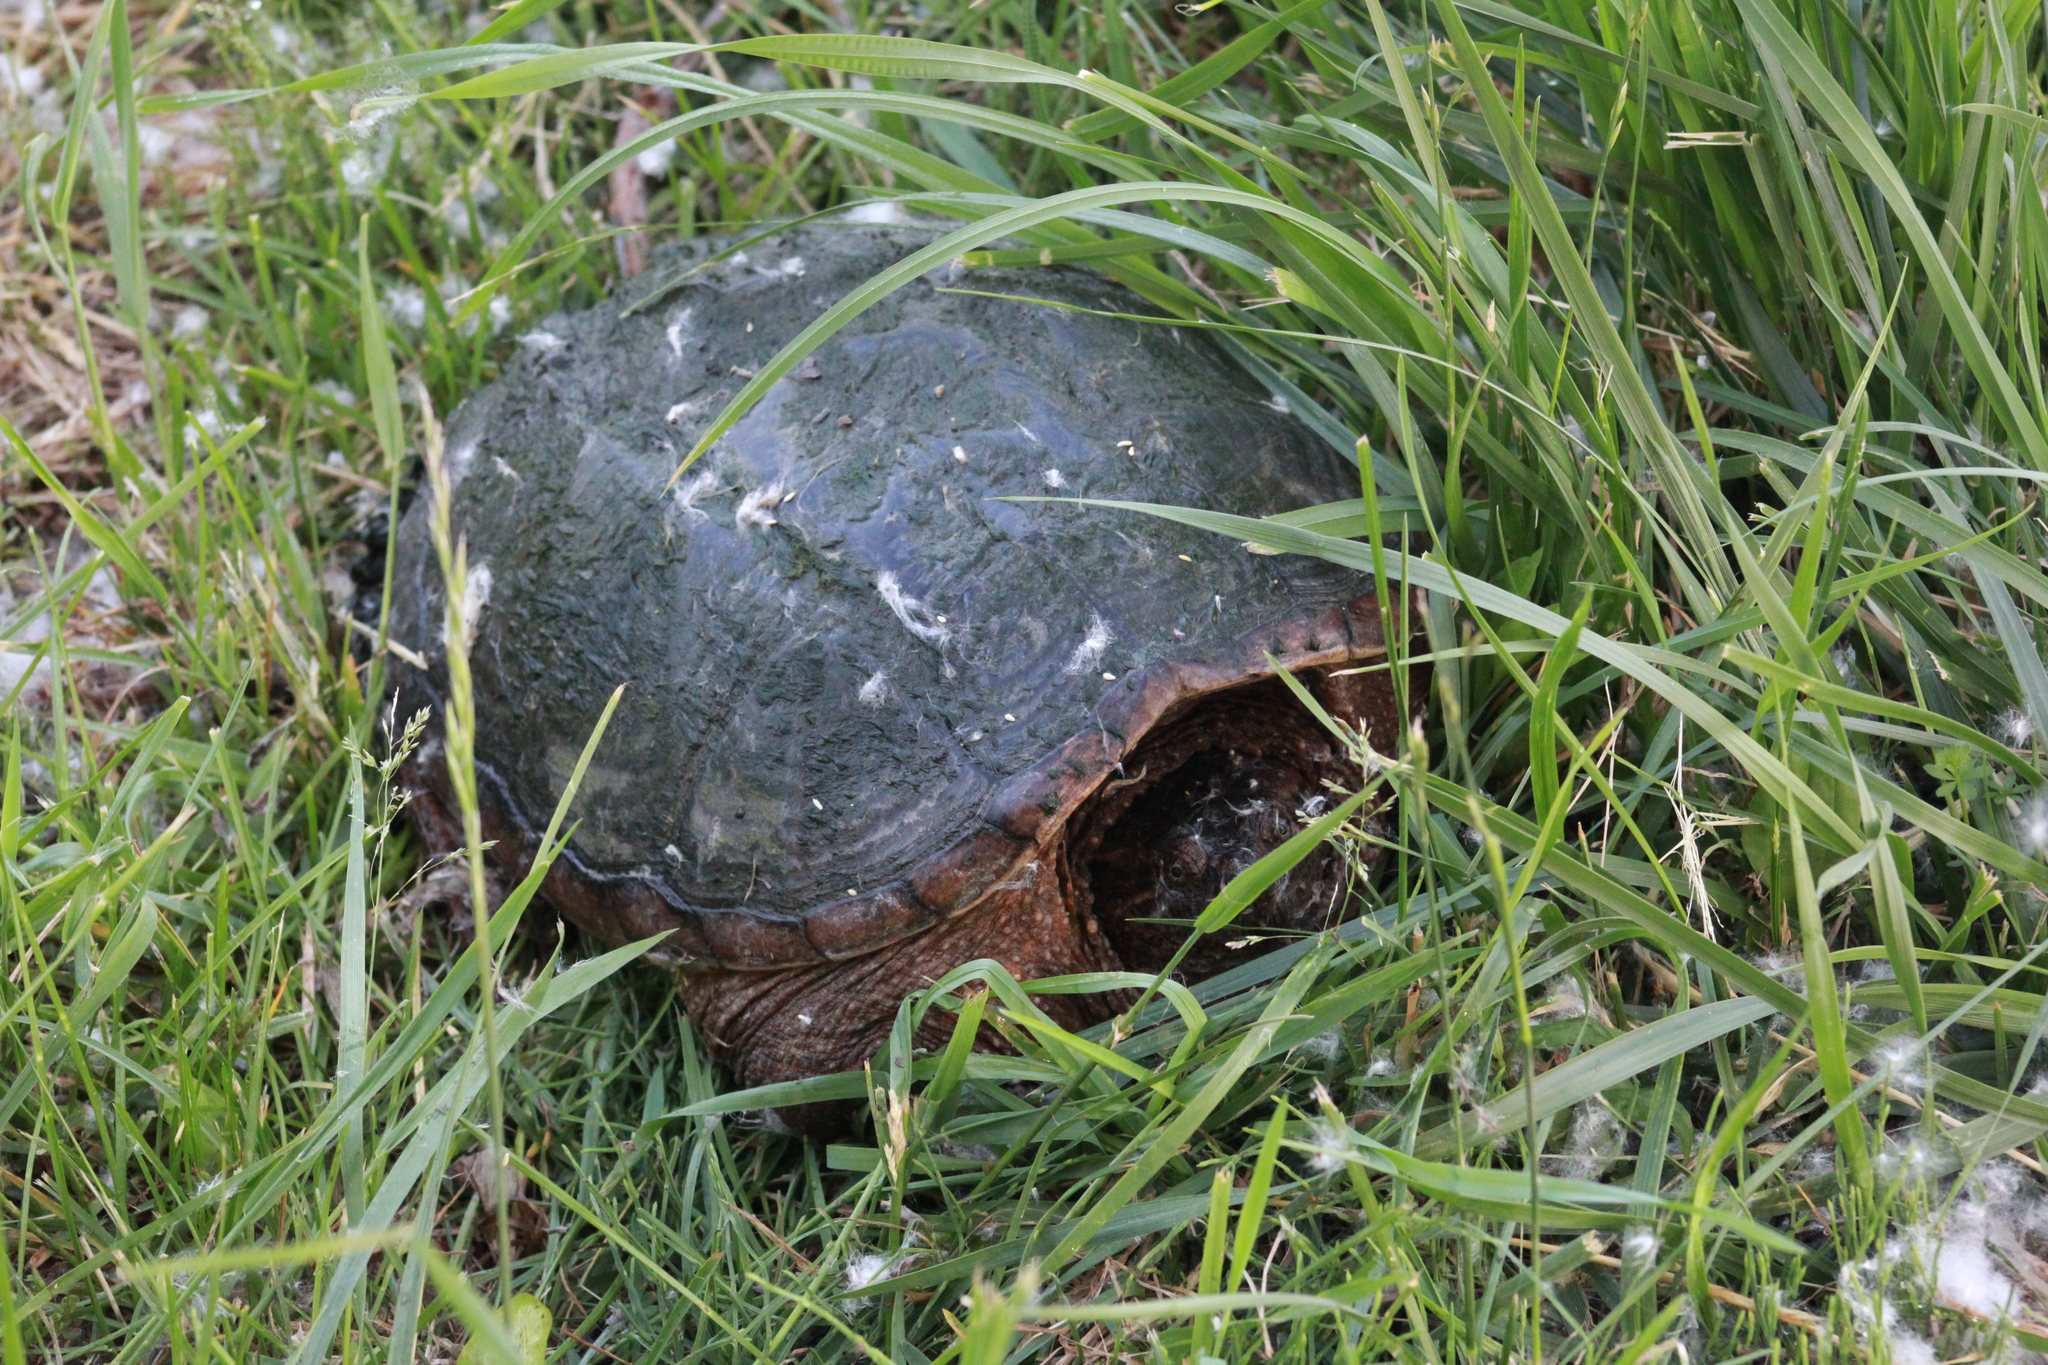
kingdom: Animalia
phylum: Chordata
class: Testudines
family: Chelydridae
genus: Chelydra
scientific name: Chelydra serpentina
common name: Common snapping turtle
